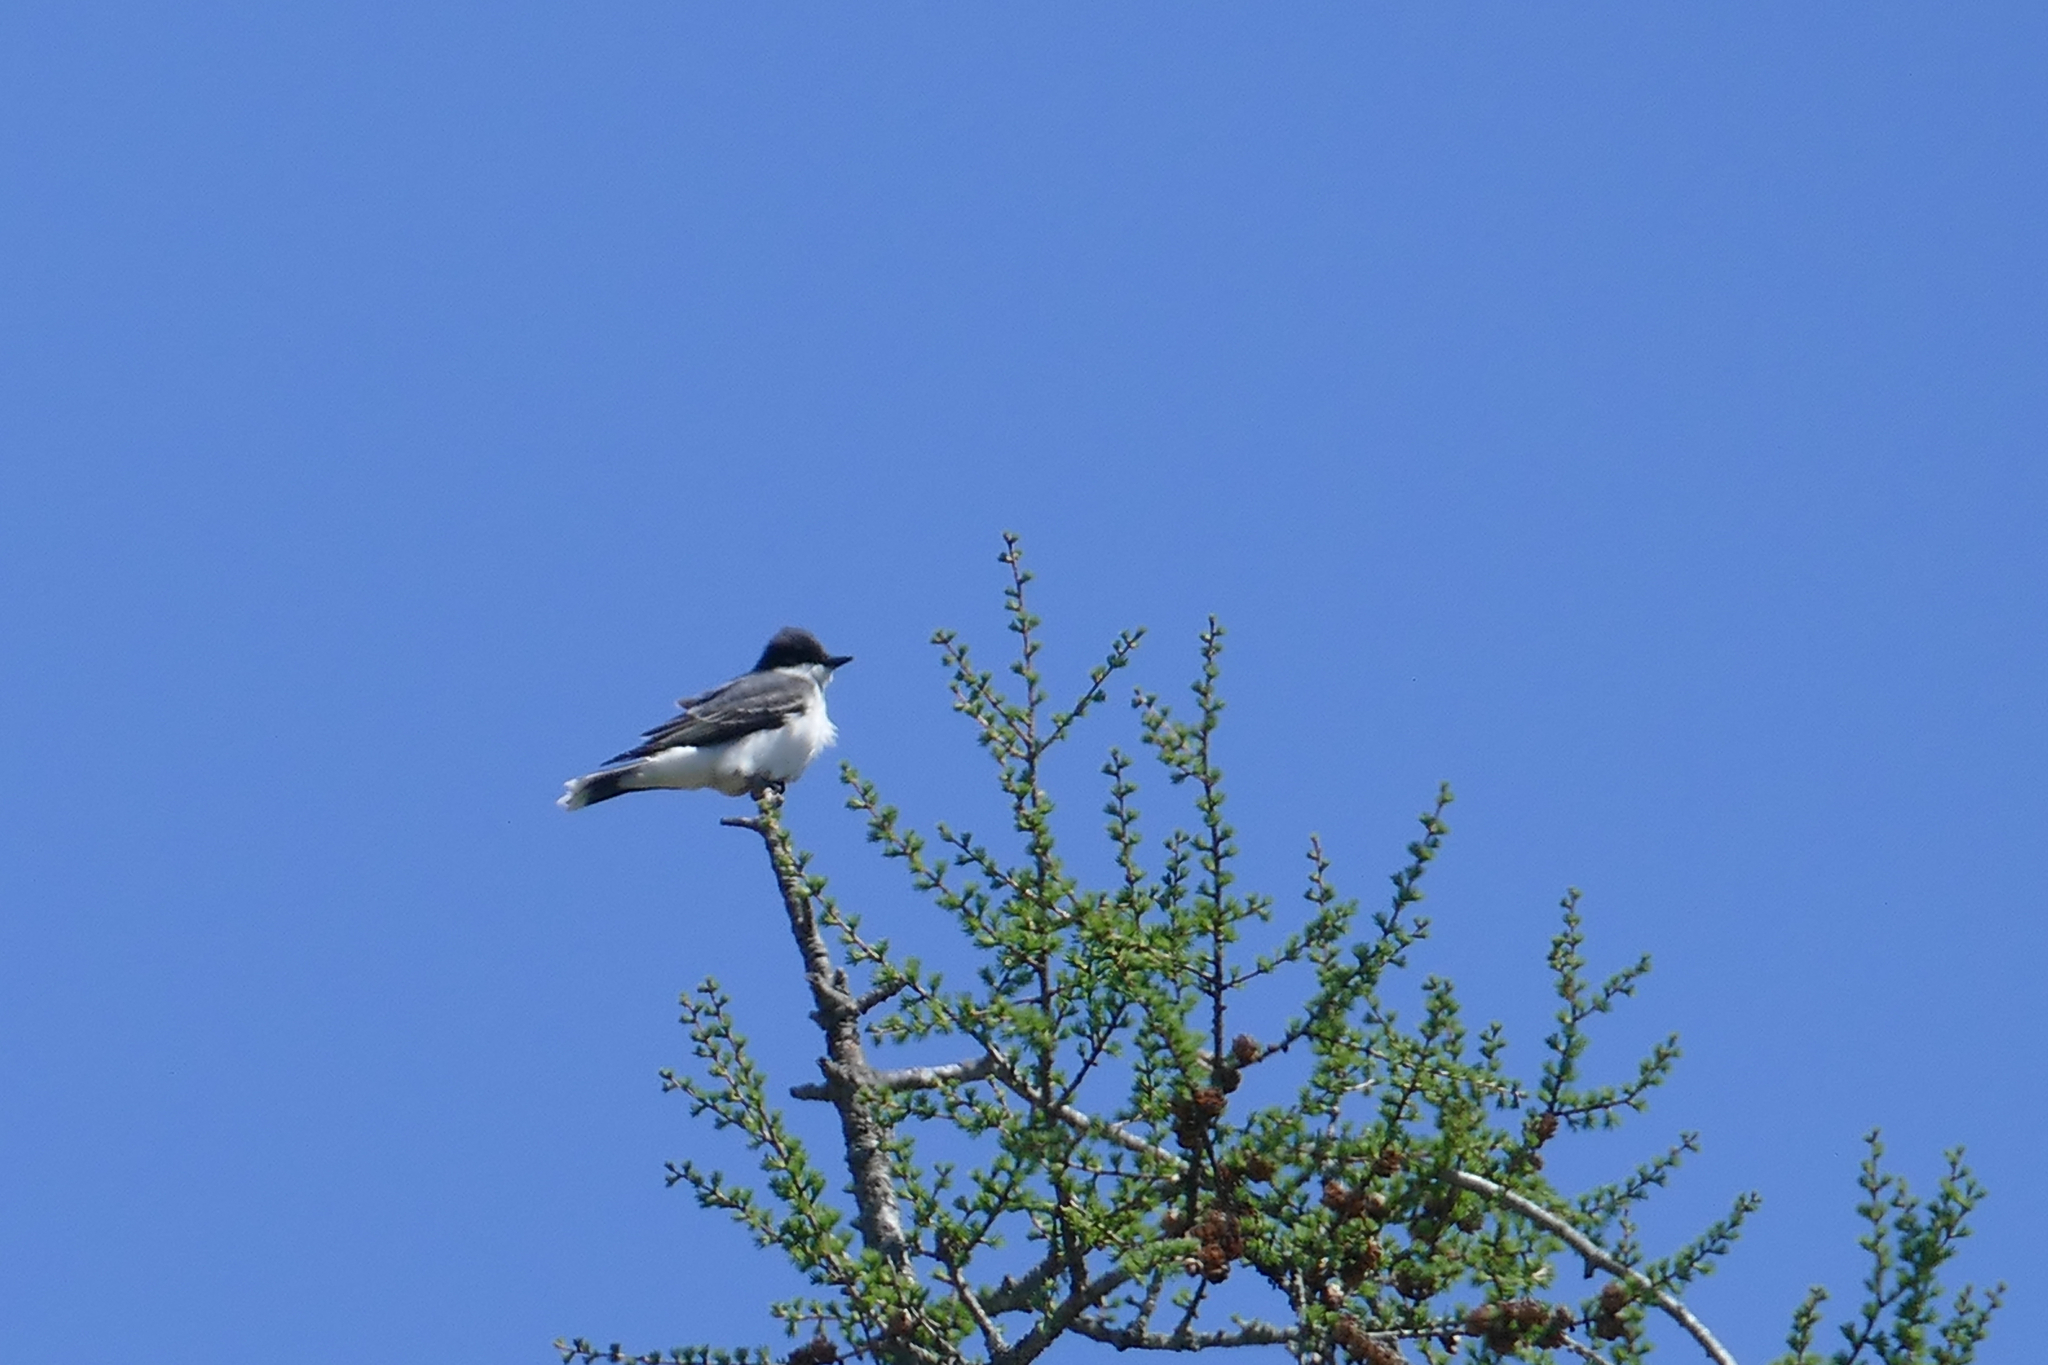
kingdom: Animalia
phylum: Chordata
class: Aves
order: Passeriformes
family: Tyrannidae
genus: Tyrannus
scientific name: Tyrannus tyrannus
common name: Eastern kingbird
